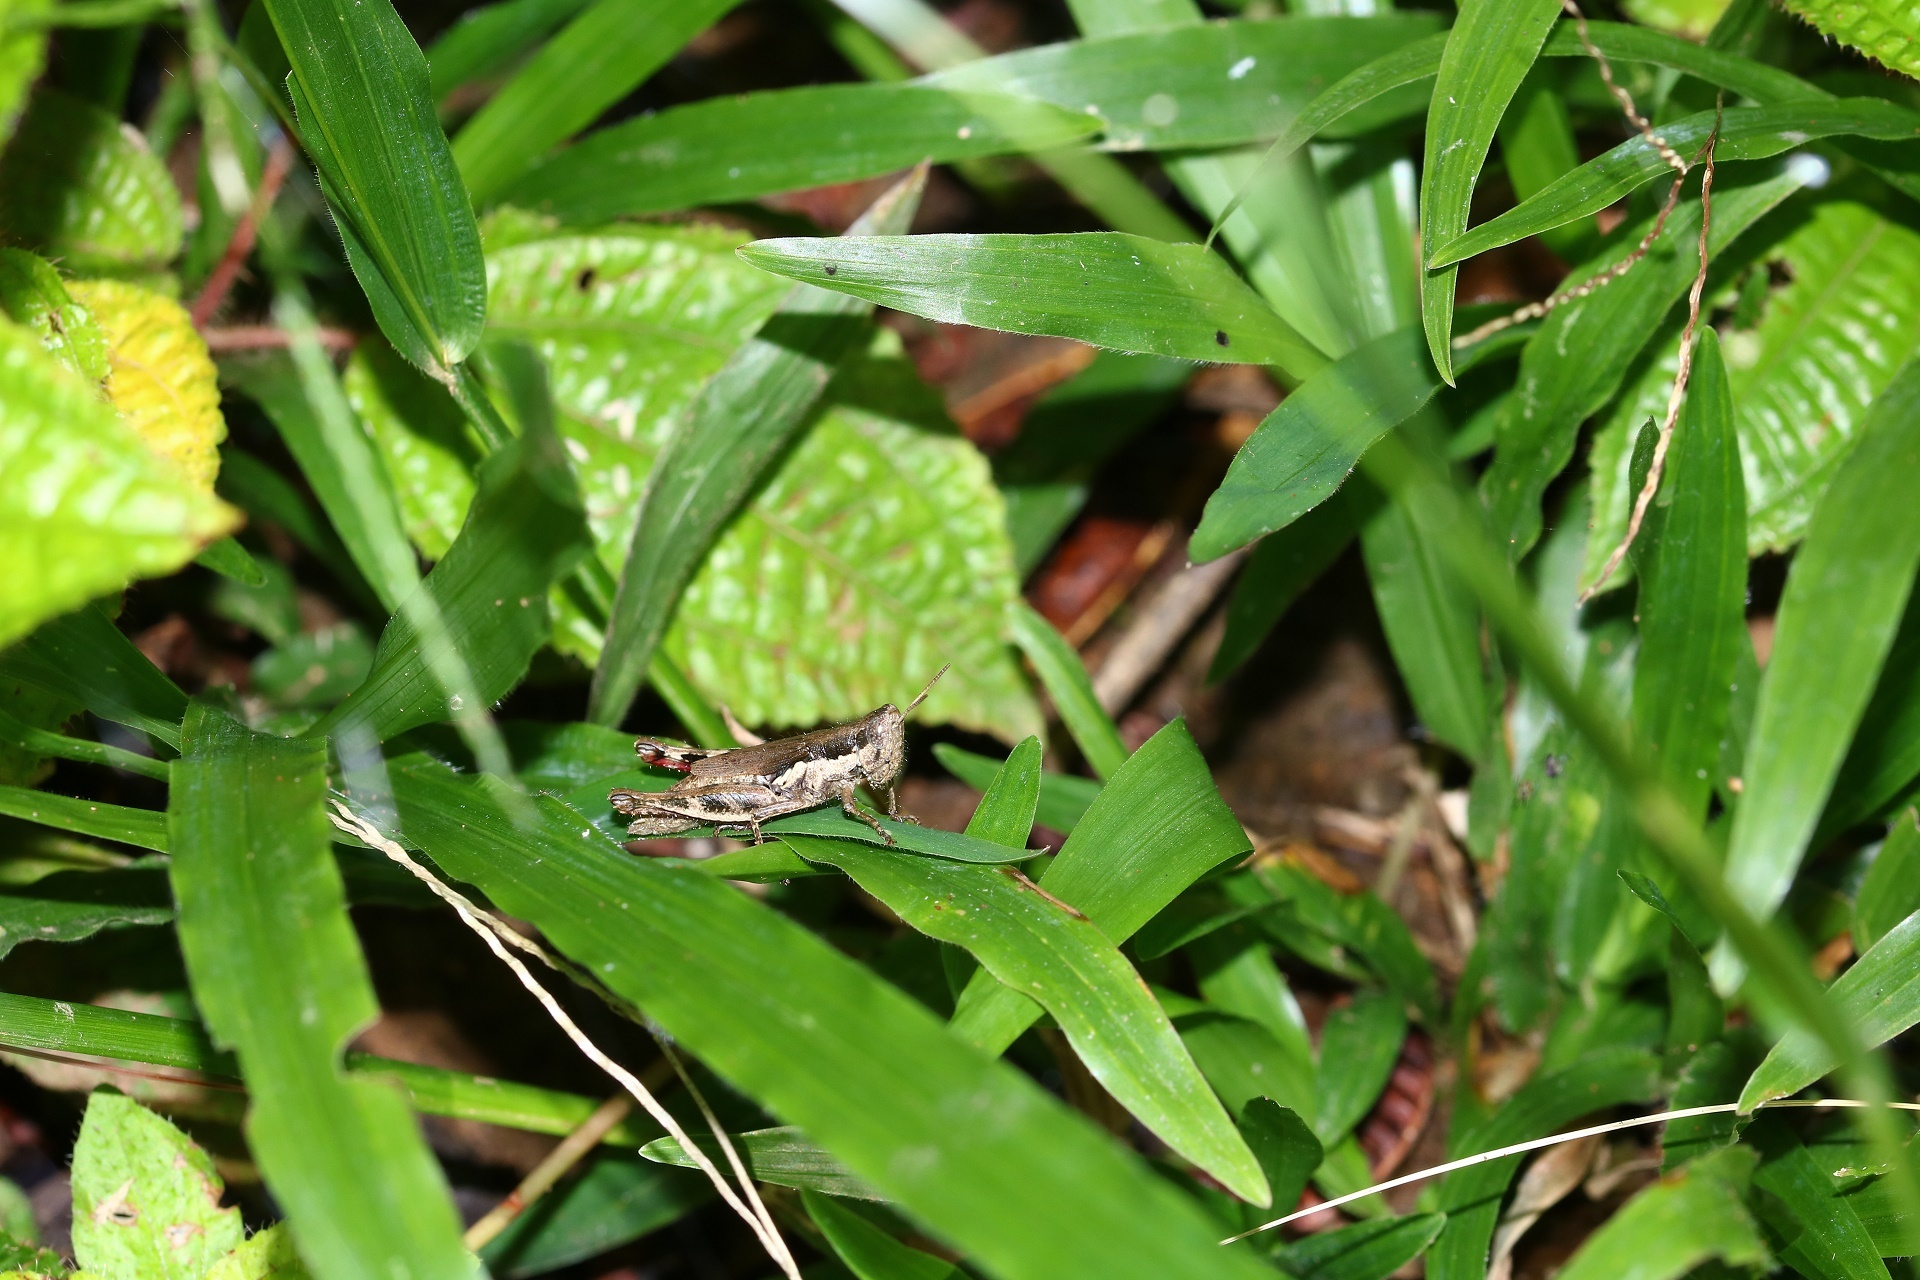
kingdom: Animalia
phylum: Arthropoda
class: Insecta
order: Orthoptera
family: Acrididae
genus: Pseudoxya
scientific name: Pseudoxya diminuta
